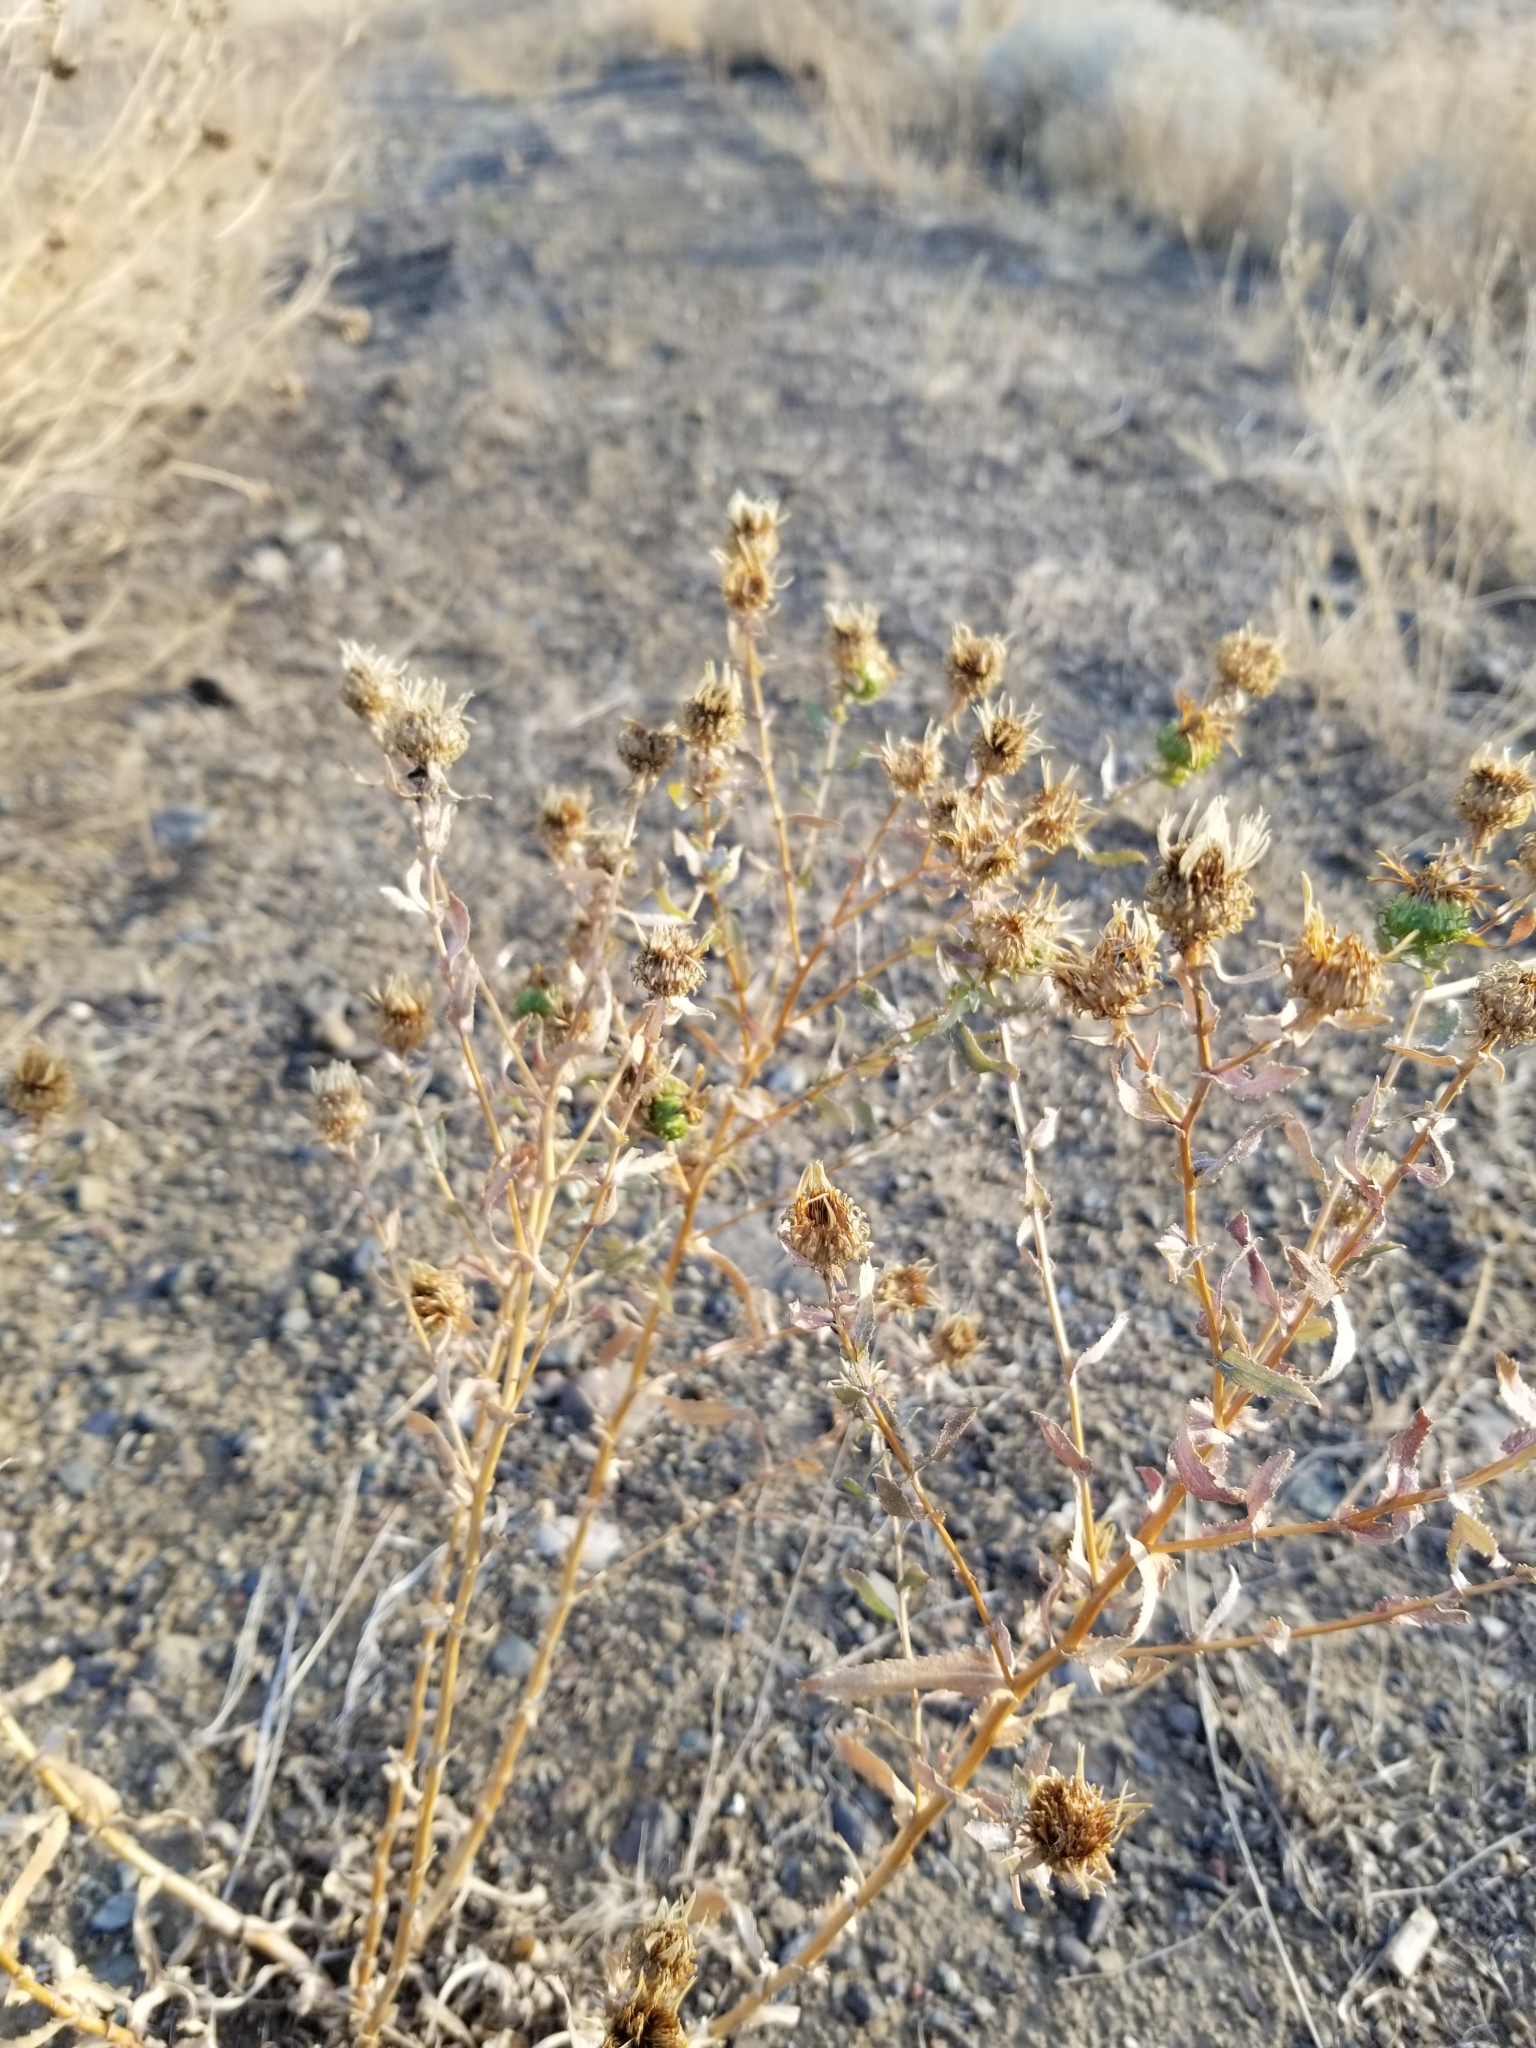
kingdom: Plantae
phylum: Tracheophyta
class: Magnoliopsida
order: Asterales
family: Asteraceae
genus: Grindelia
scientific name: Grindelia squarrosa
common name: Curly-cup gumweed
